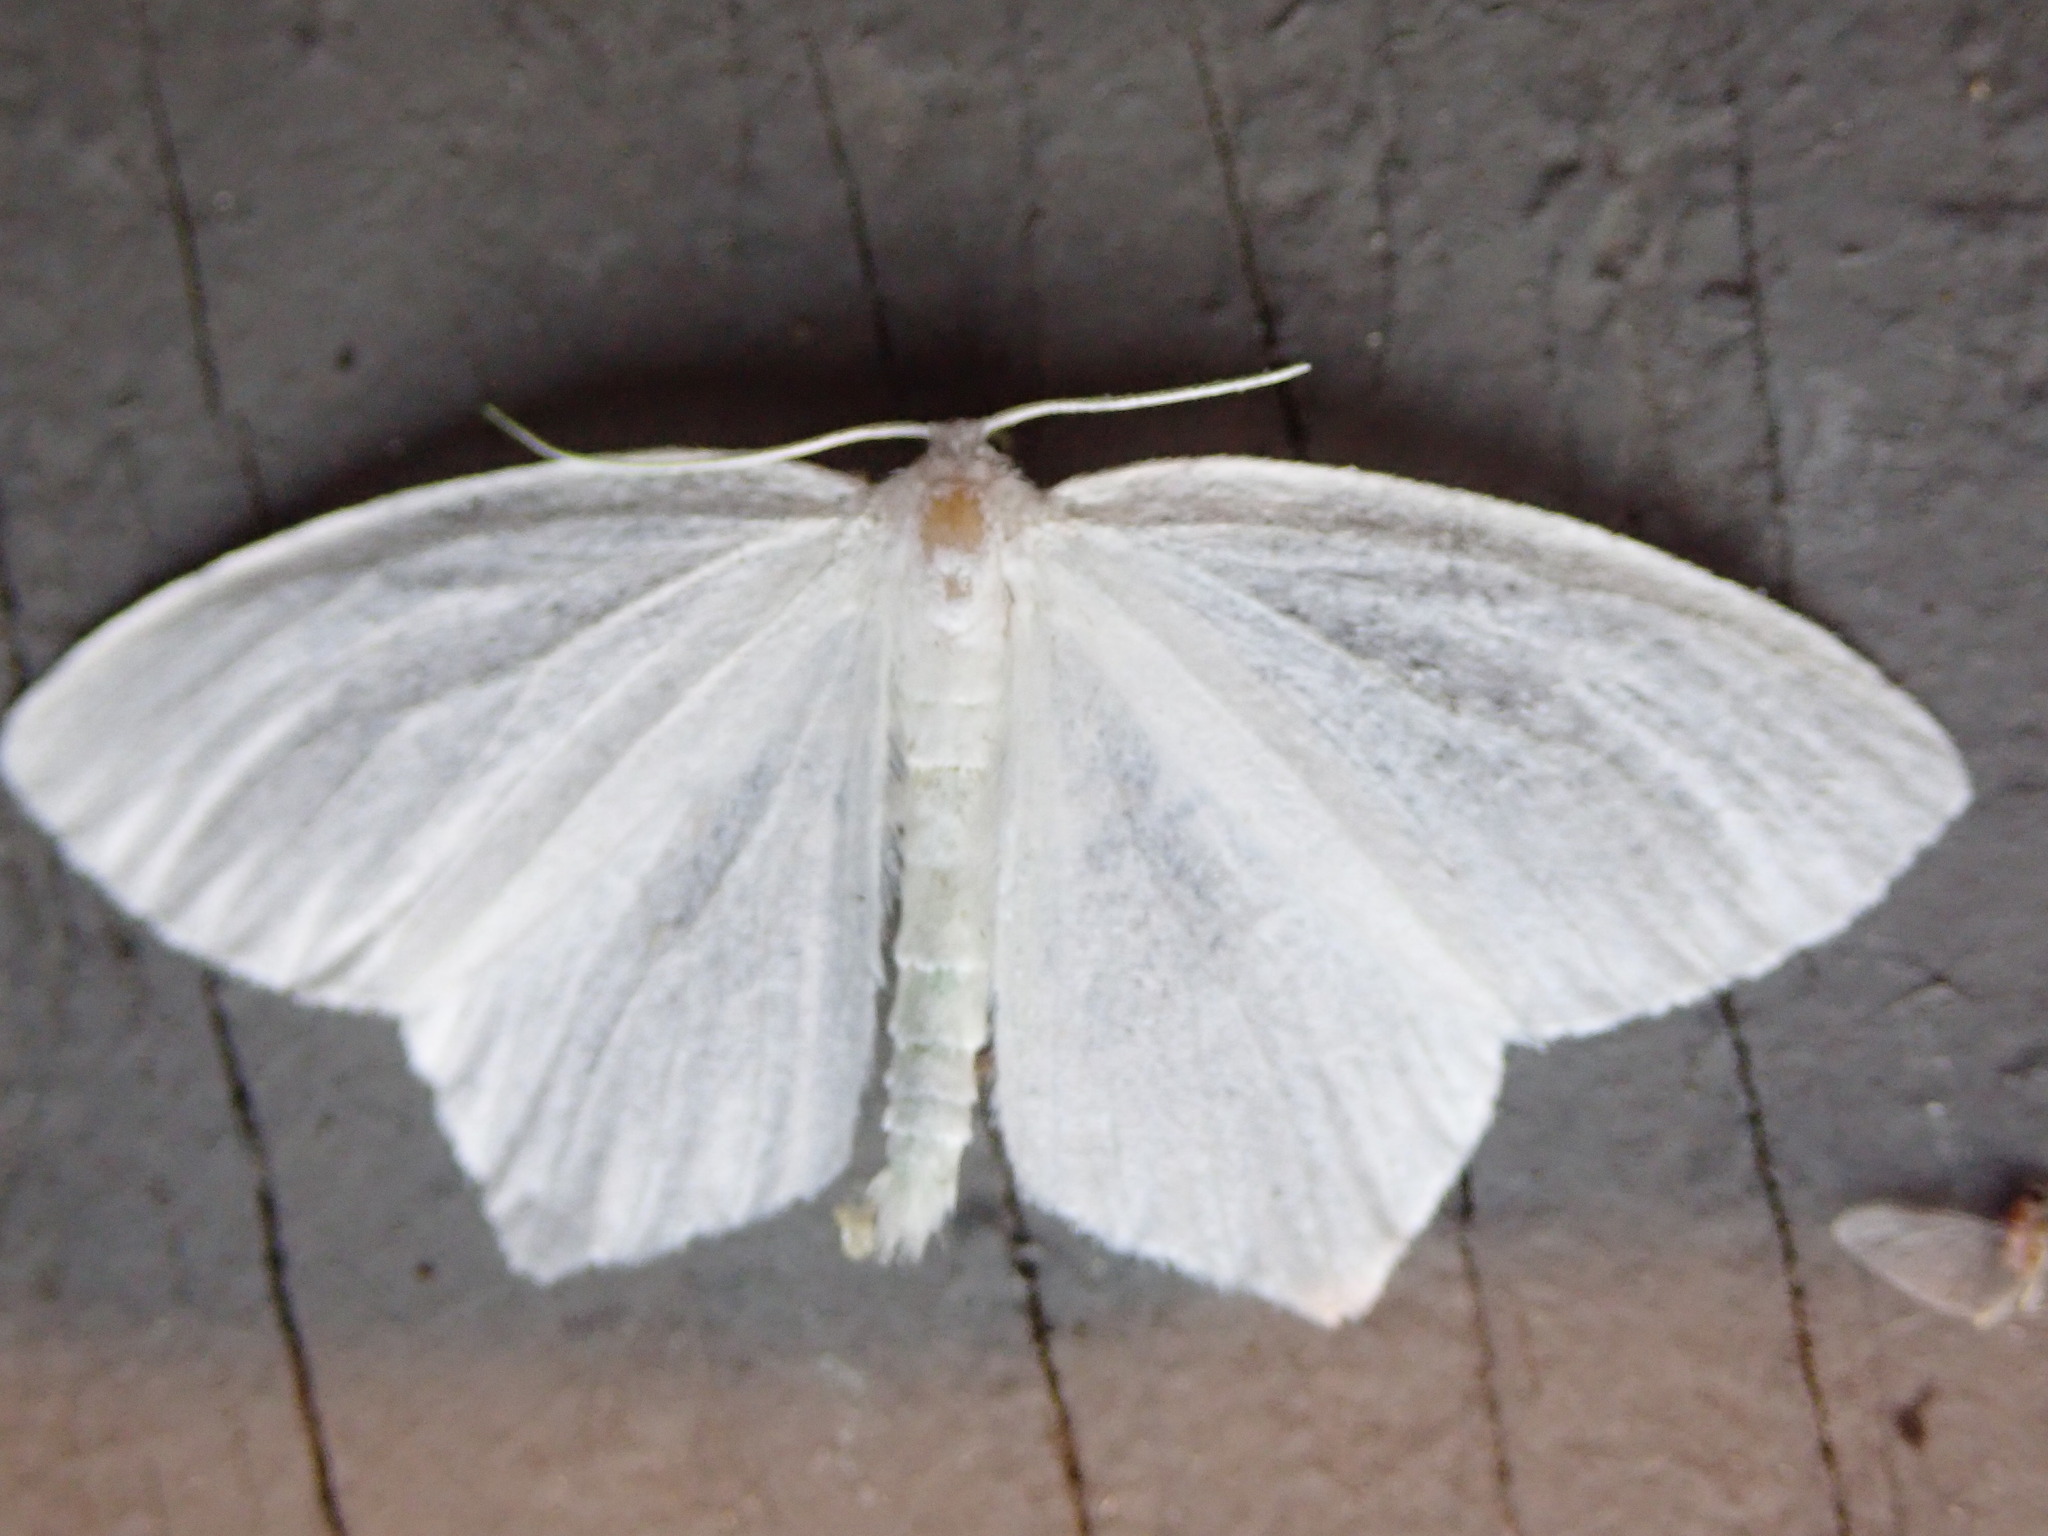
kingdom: Animalia
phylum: Arthropoda
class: Insecta
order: Lepidoptera
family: Geometridae
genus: Eugonobapta
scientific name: Eugonobapta nivosaria
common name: Snowy geometer
